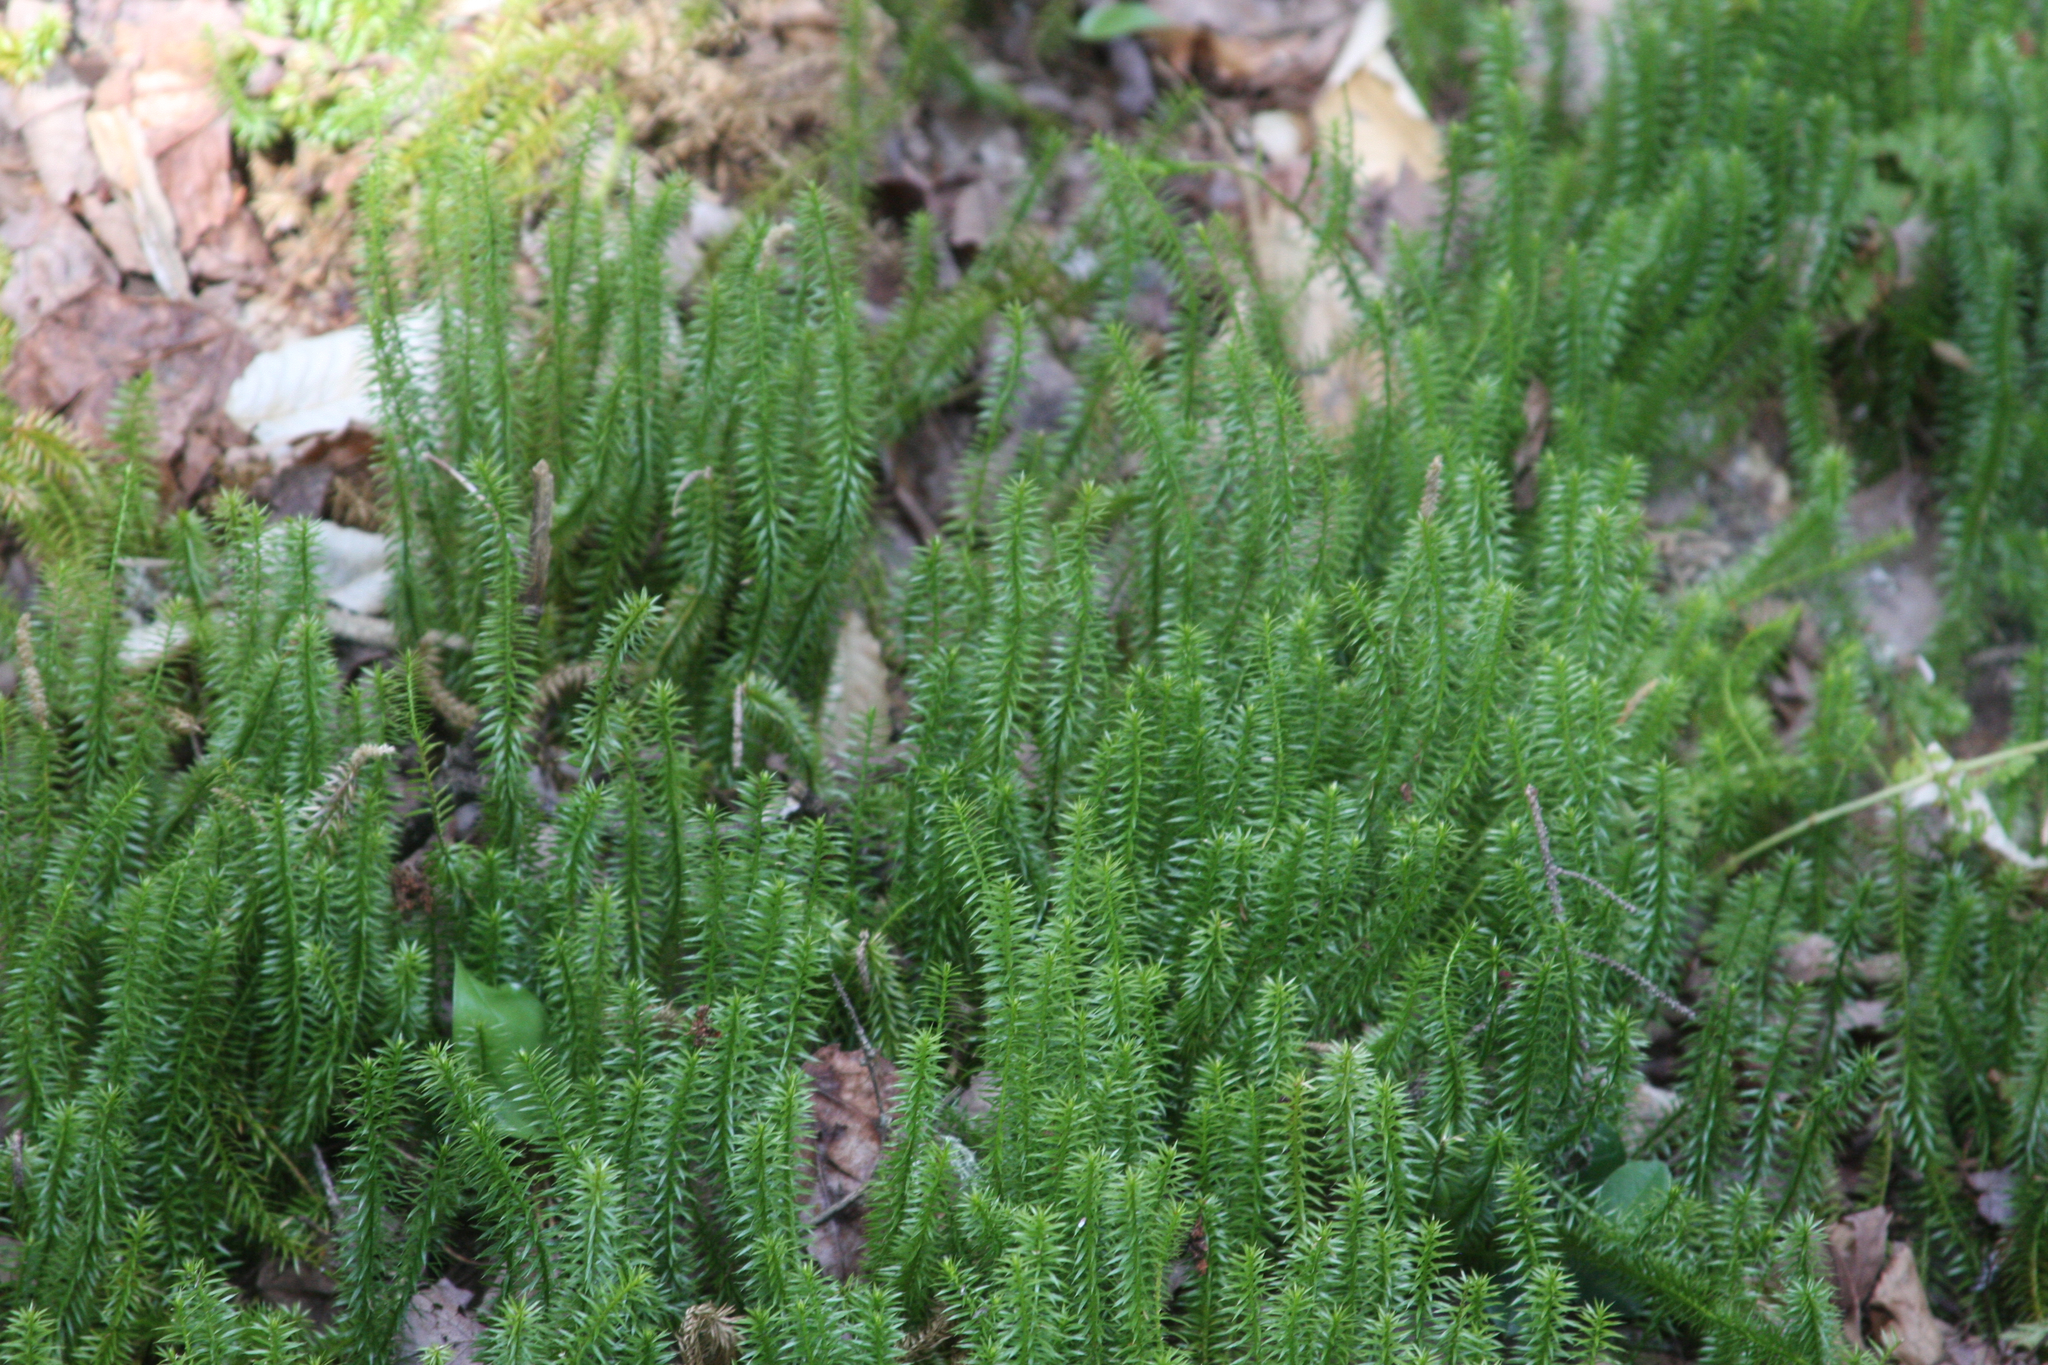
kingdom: Plantae
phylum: Tracheophyta
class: Lycopodiopsida
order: Lycopodiales
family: Lycopodiaceae
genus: Spinulum
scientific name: Spinulum annotinum
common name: Interrupted club-moss
